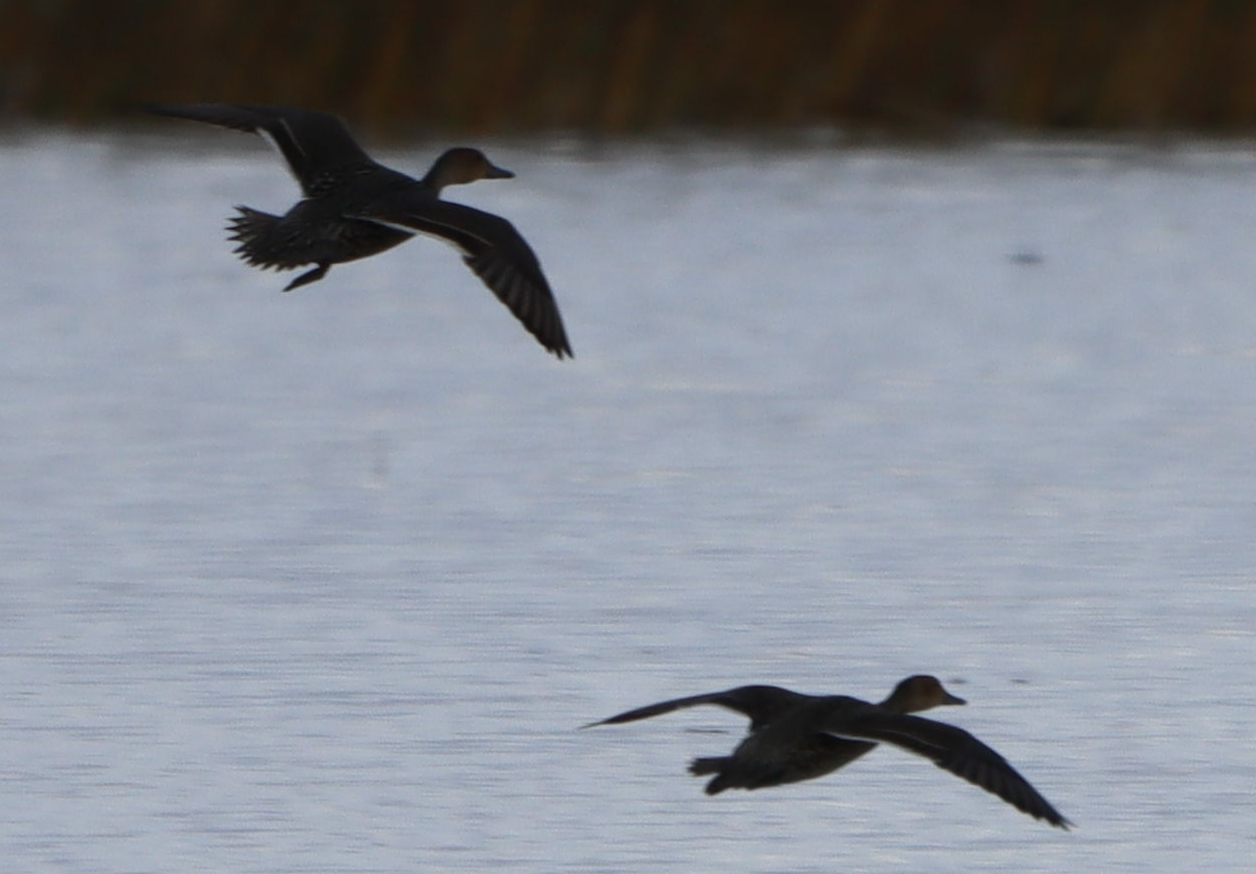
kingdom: Animalia
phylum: Chordata
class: Aves
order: Anseriformes
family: Anatidae
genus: Anas
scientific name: Anas acuta
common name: Northern pintail
